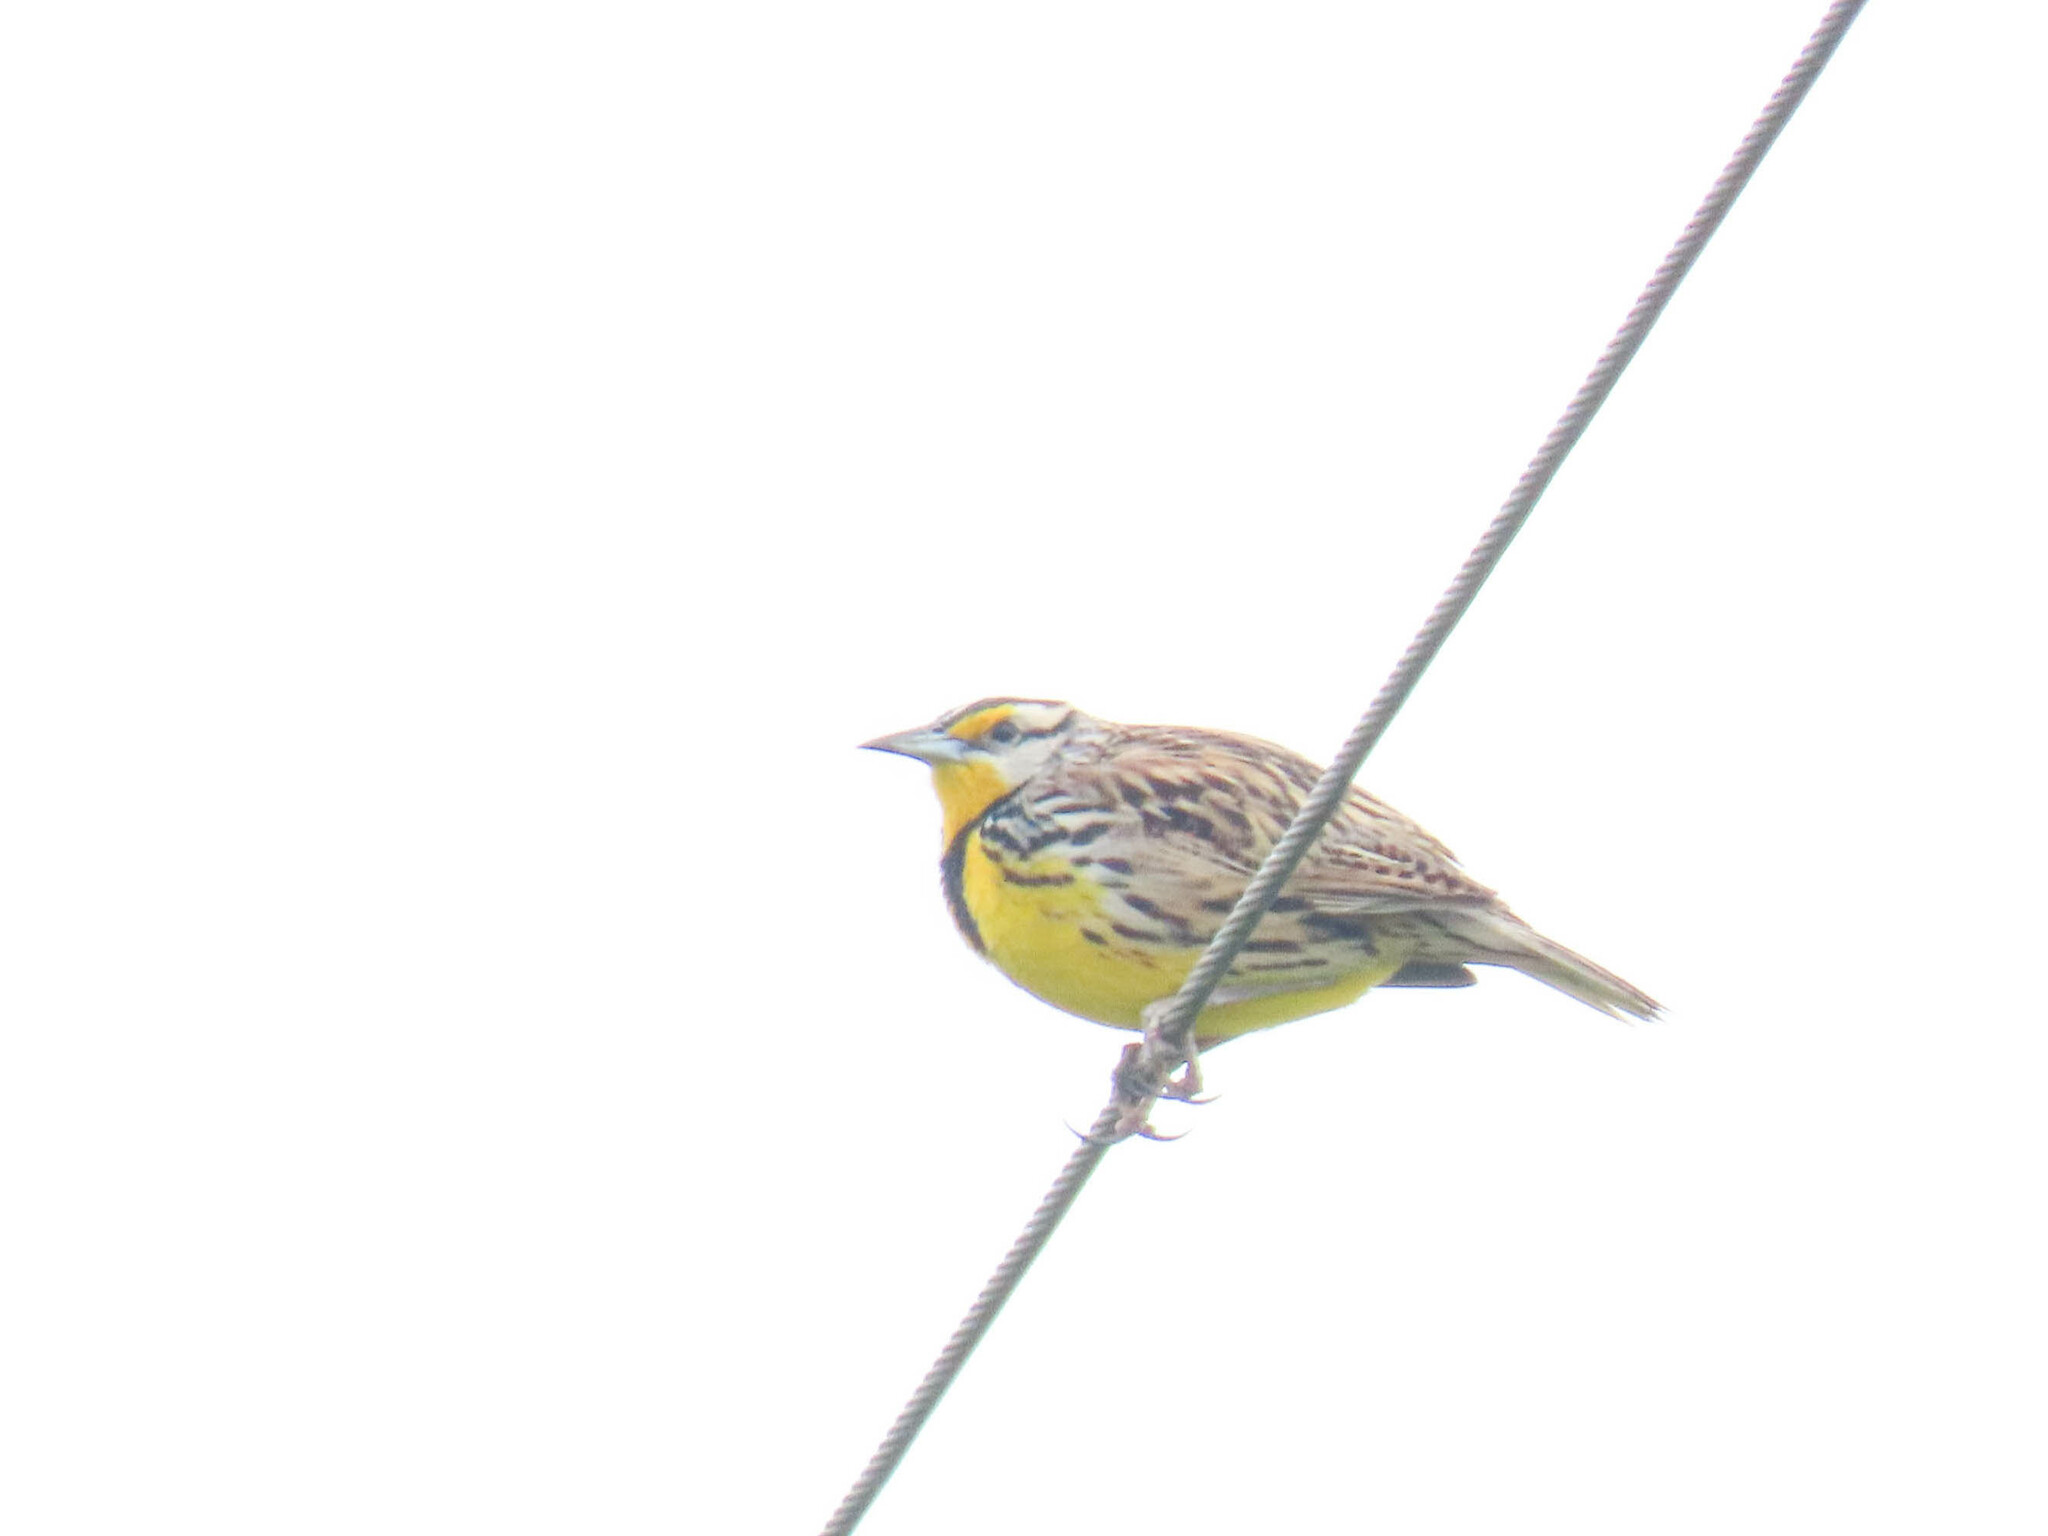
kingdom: Animalia
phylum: Chordata
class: Aves
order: Passeriformes
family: Icteridae
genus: Sturnella
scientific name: Sturnella magna
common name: Eastern meadowlark
